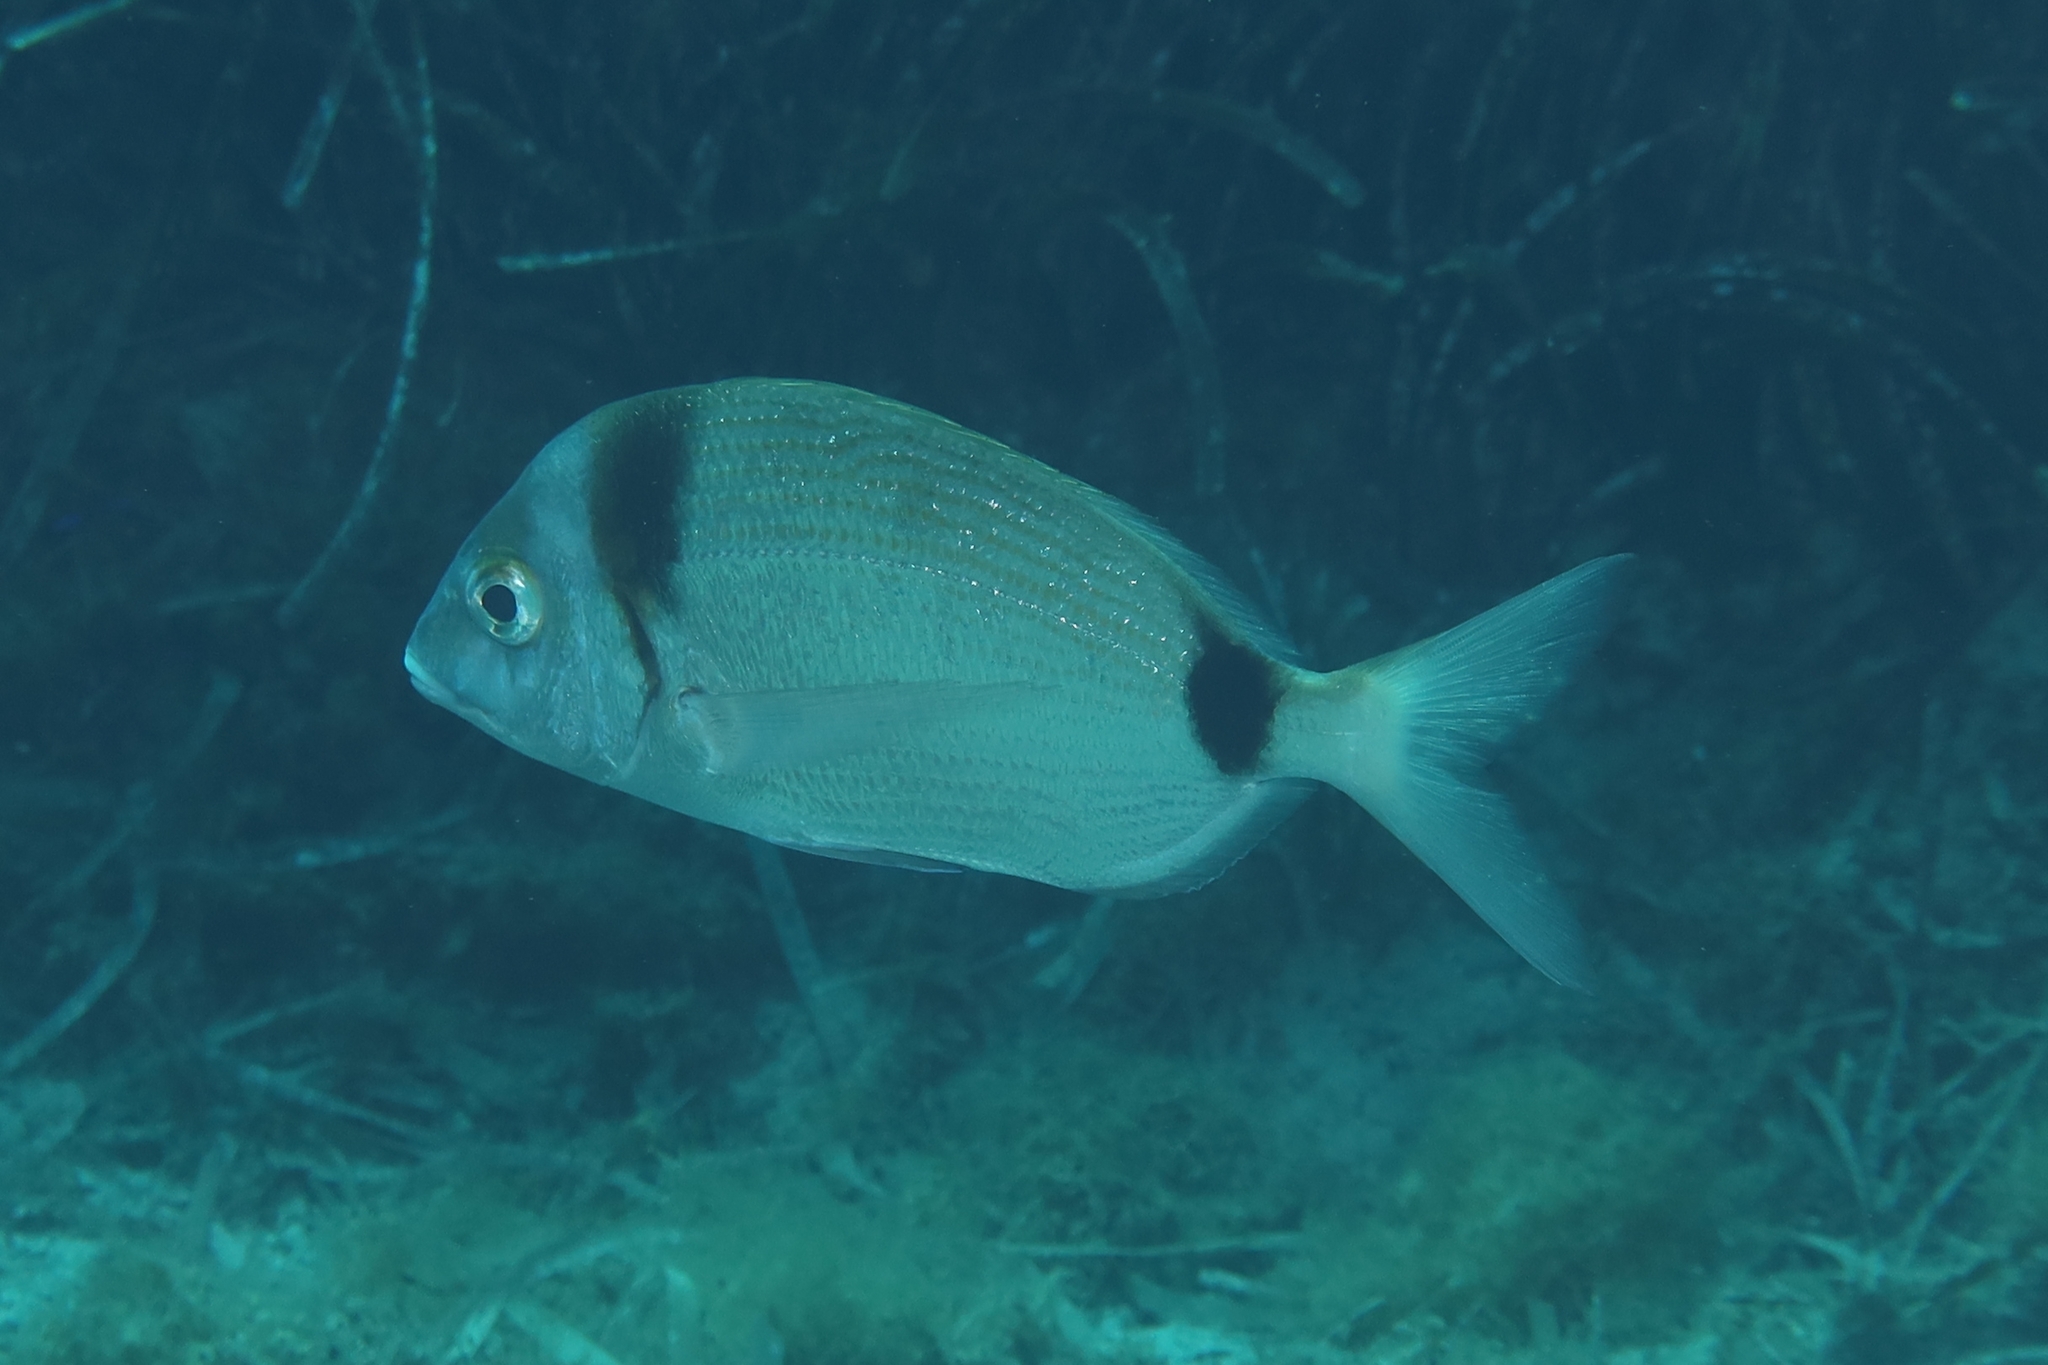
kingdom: Animalia
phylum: Chordata
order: Perciformes
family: Sparidae
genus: Diplodus
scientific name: Diplodus vulgaris
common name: Common two-banded seabream
